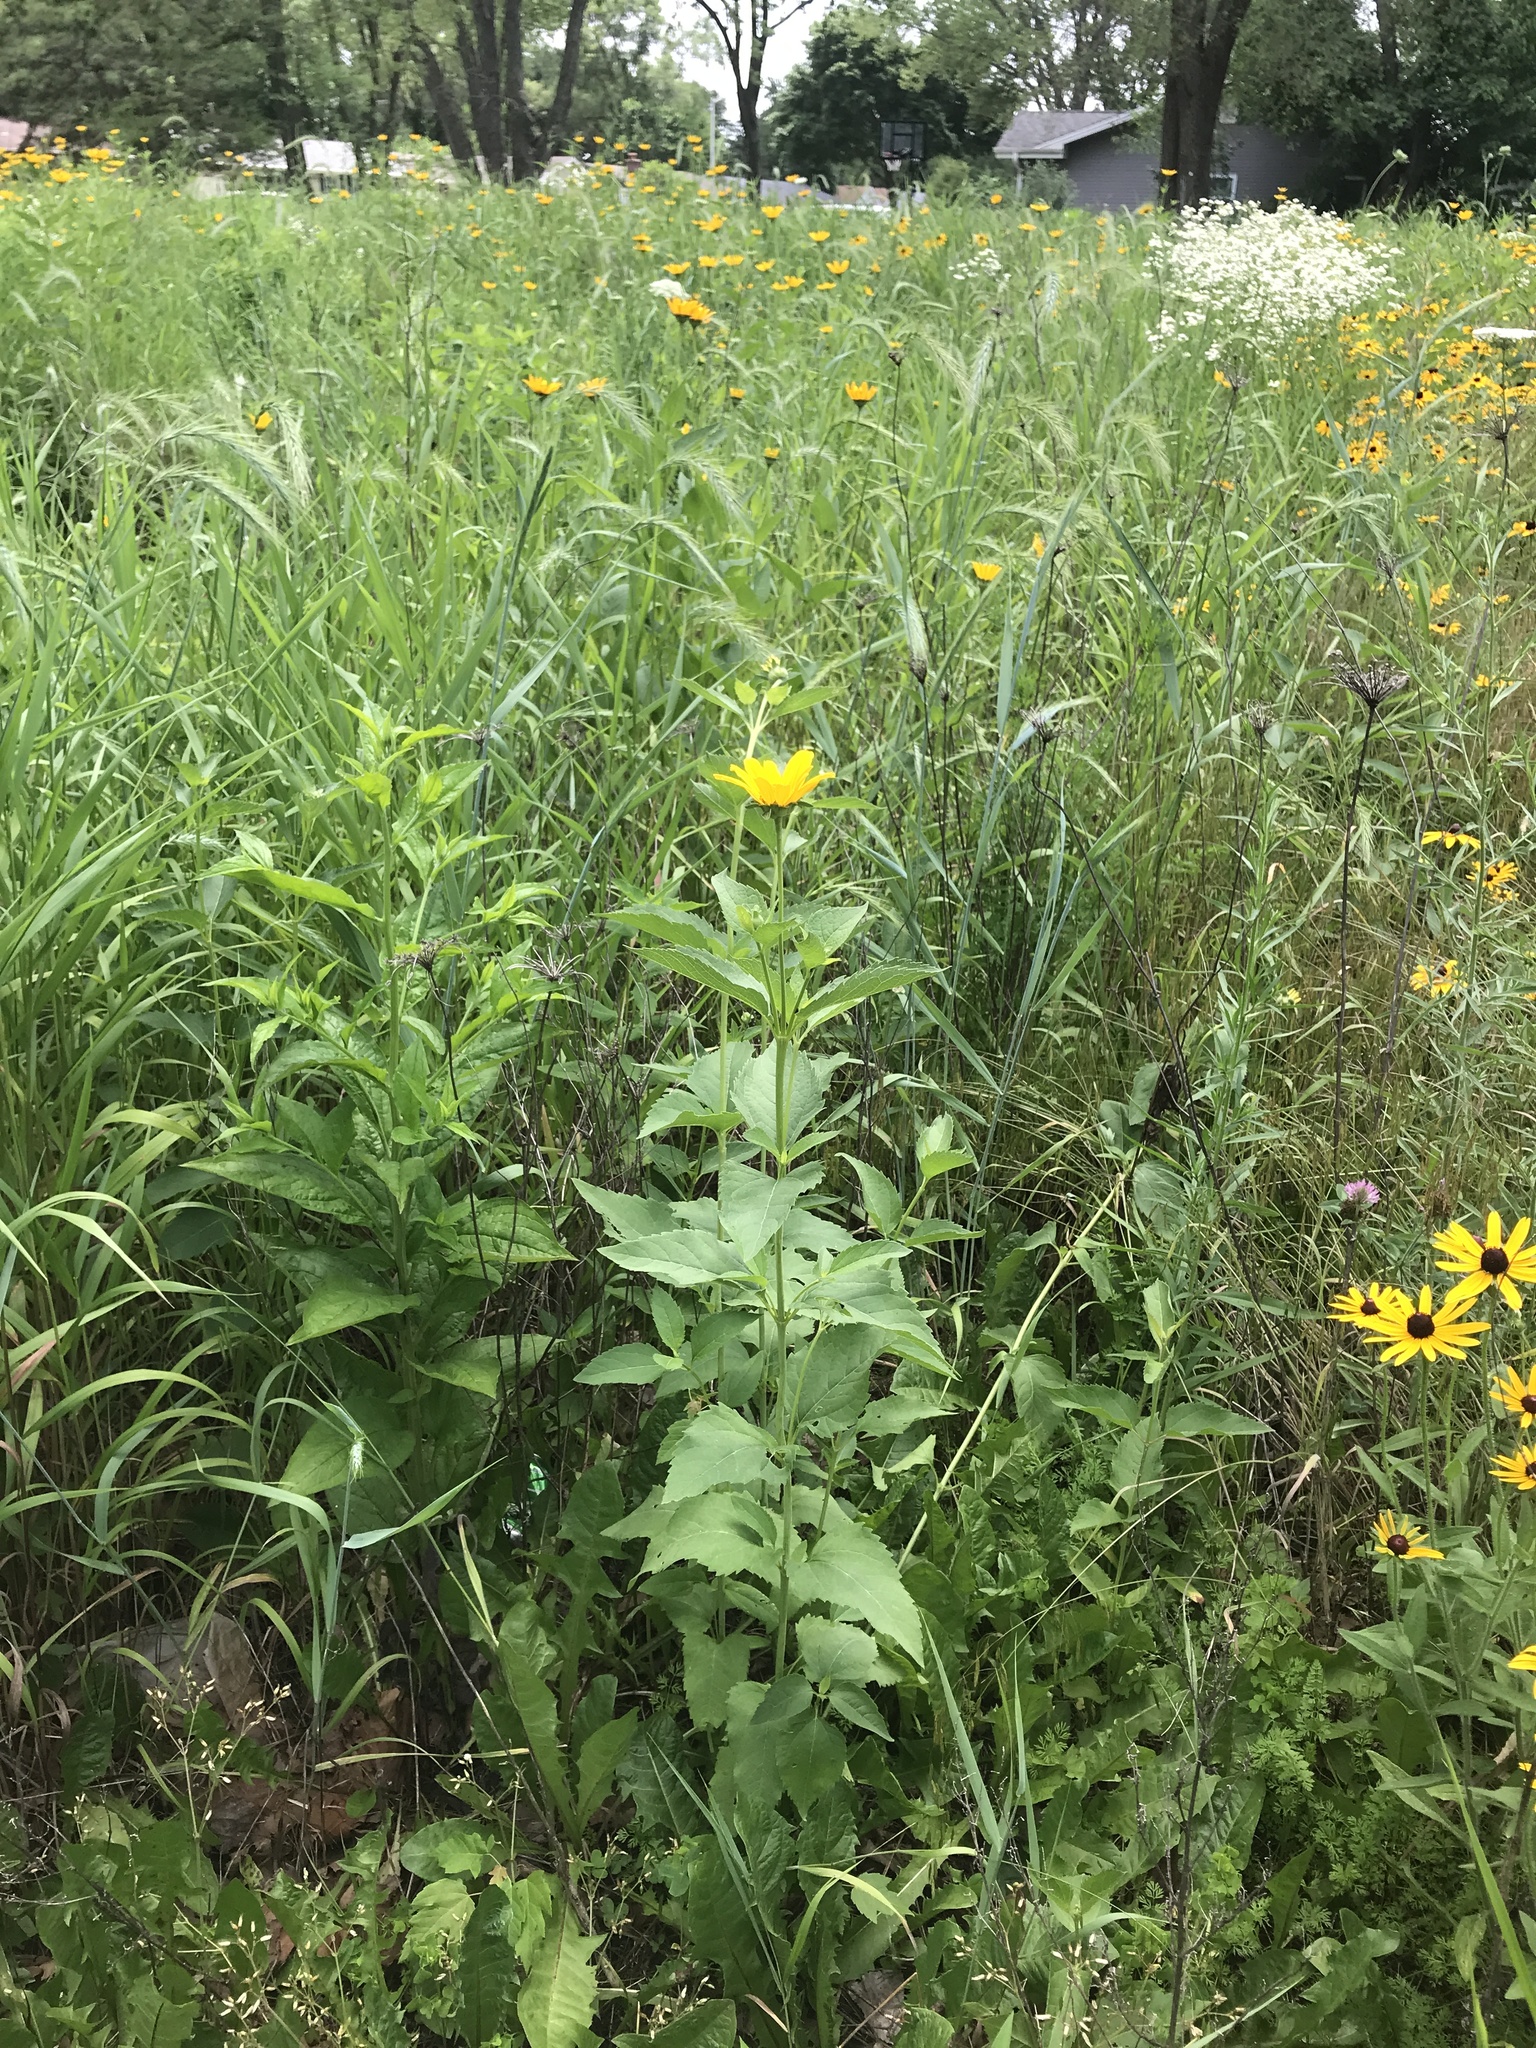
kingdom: Plantae
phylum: Tracheophyta
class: Magnoliopsida
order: Asterales
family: Asteraceae
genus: Heliopsis
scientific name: Heliopsis helianthoides
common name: False sunflower
